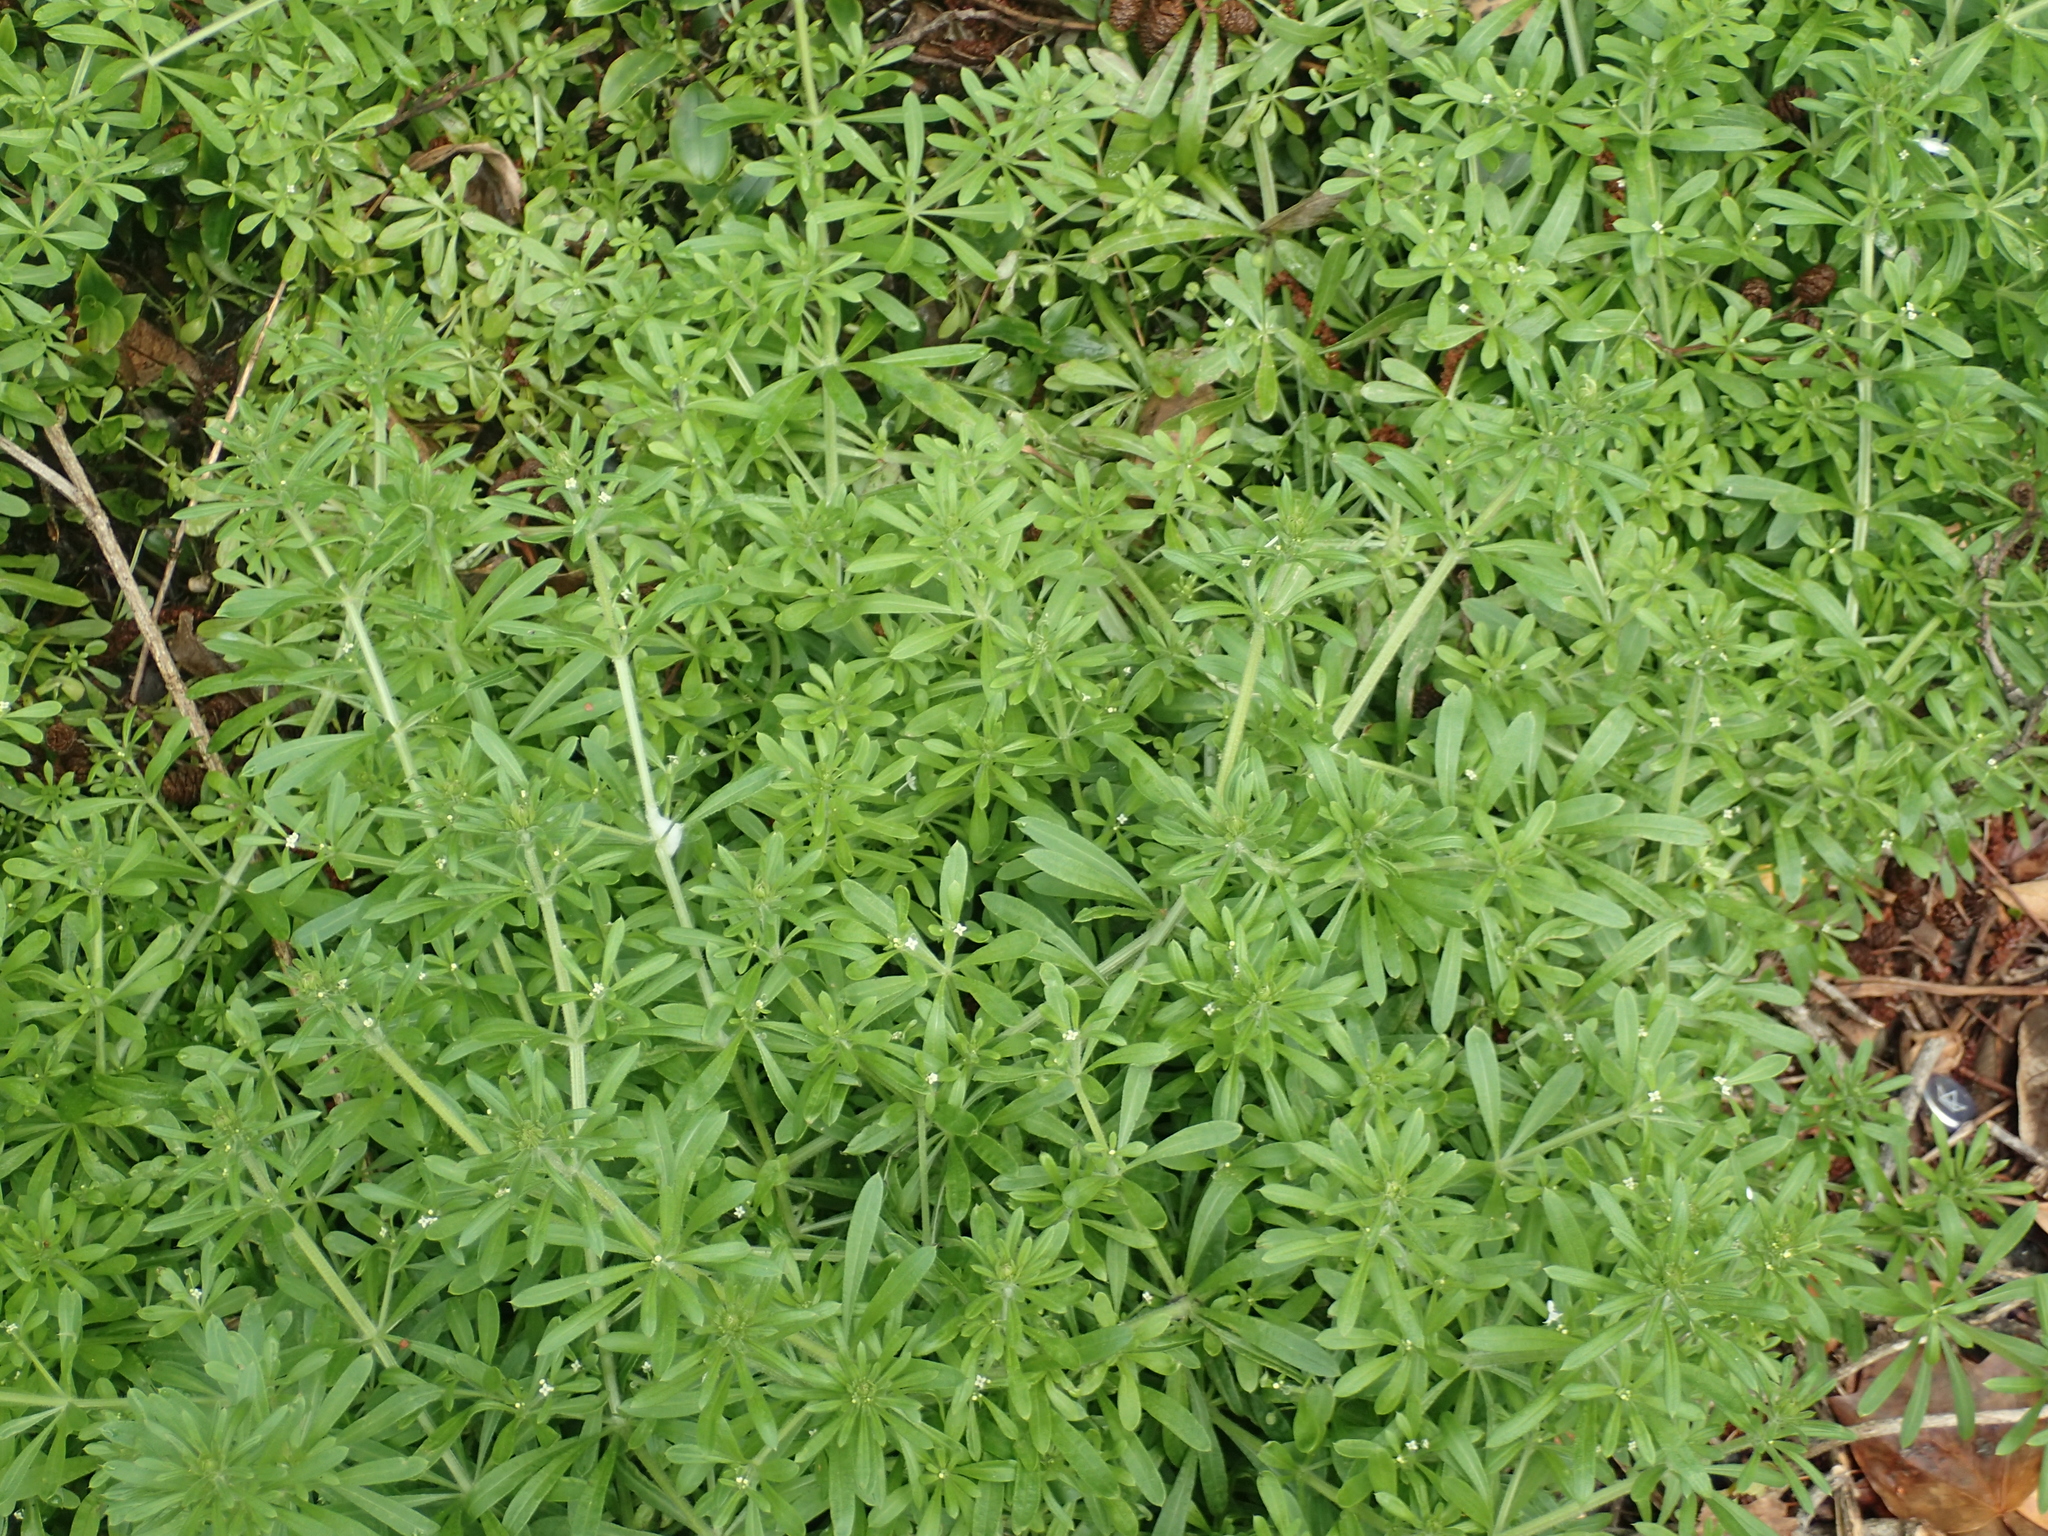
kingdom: Plantae
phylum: Tracheophyta
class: Magnoliopsida
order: Gentianales
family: Rubiaceae
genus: Galium
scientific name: Galium aparine
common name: Cleavers
